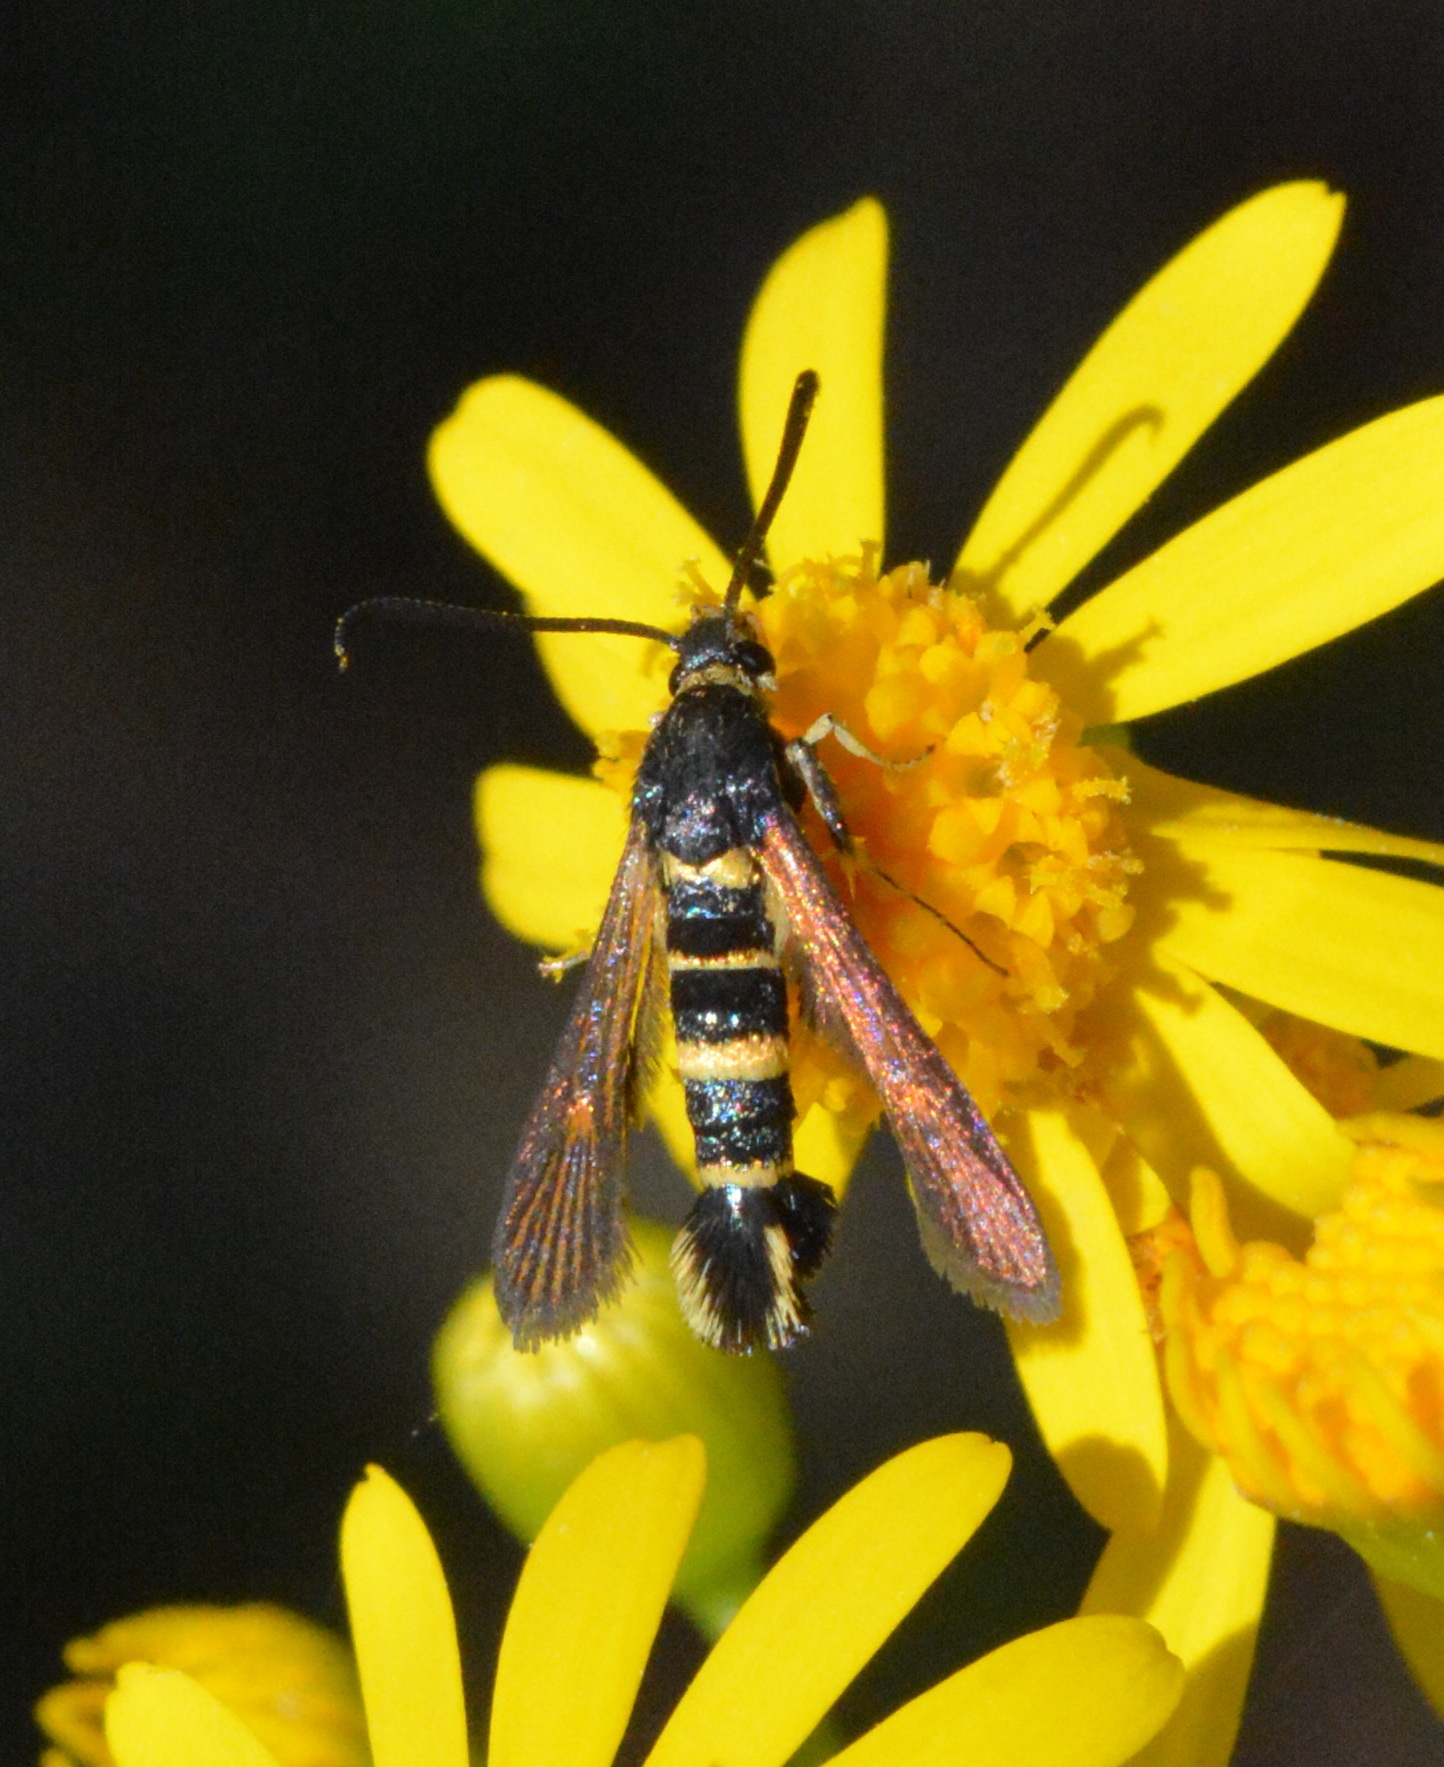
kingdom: Animalia
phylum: Arthropoda
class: Insecta
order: Lepidoptera
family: Sesiidae
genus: Synanthedon
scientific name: Synanthedon decipiens
